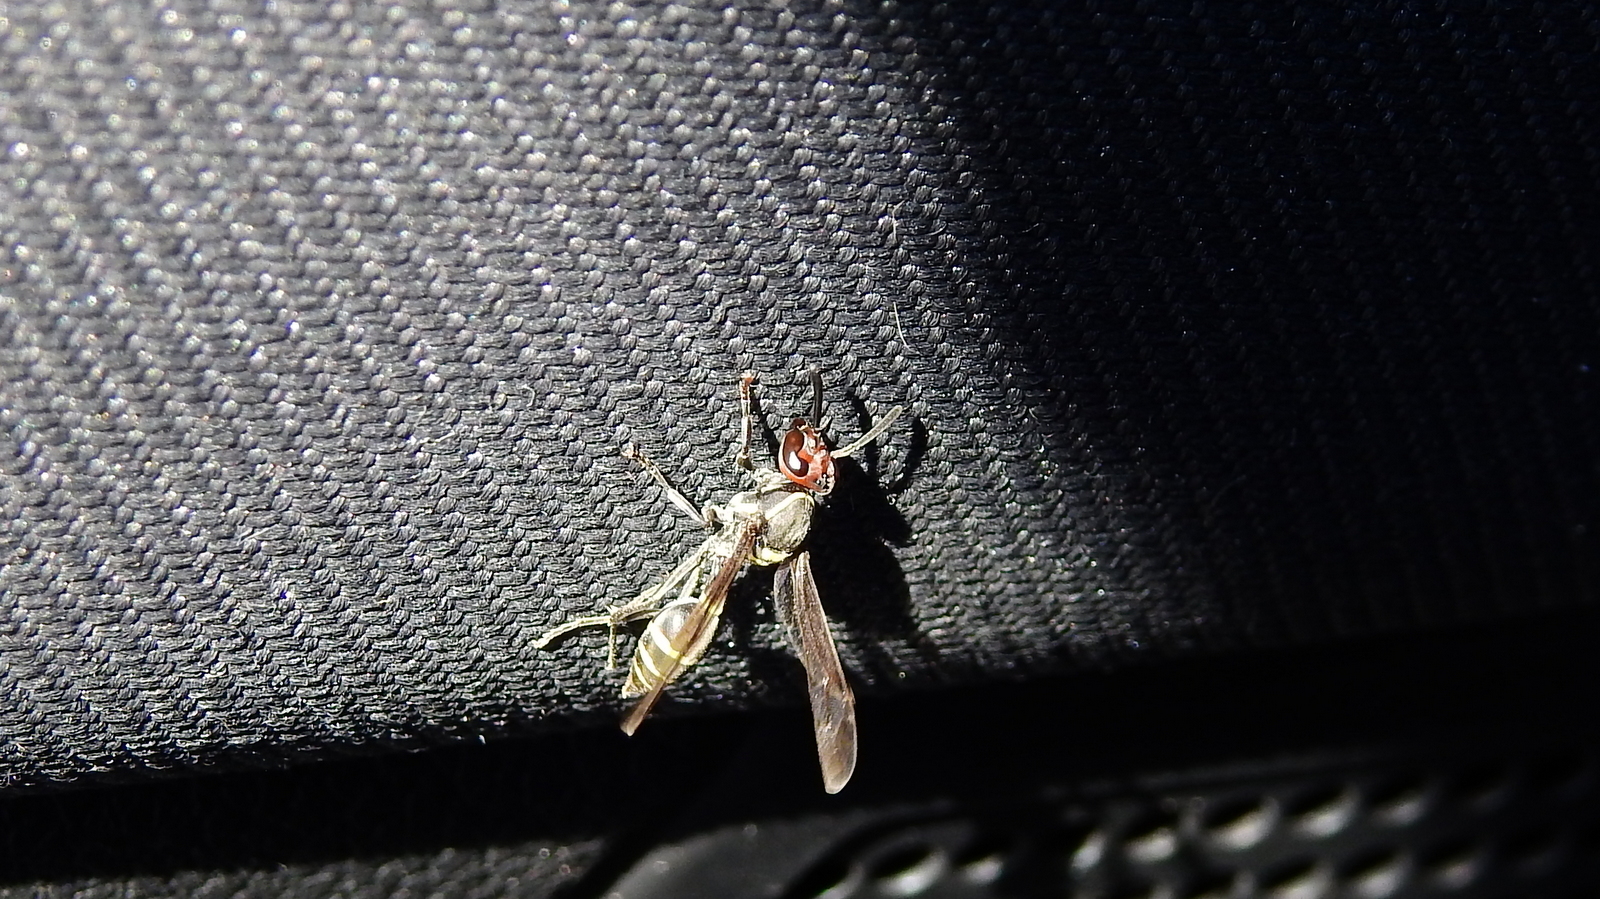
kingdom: Animalia
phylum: Arthropoda
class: Insecta
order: Hymenoptera
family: Eumenidae
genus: Polybia
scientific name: Polybia ruficeps
